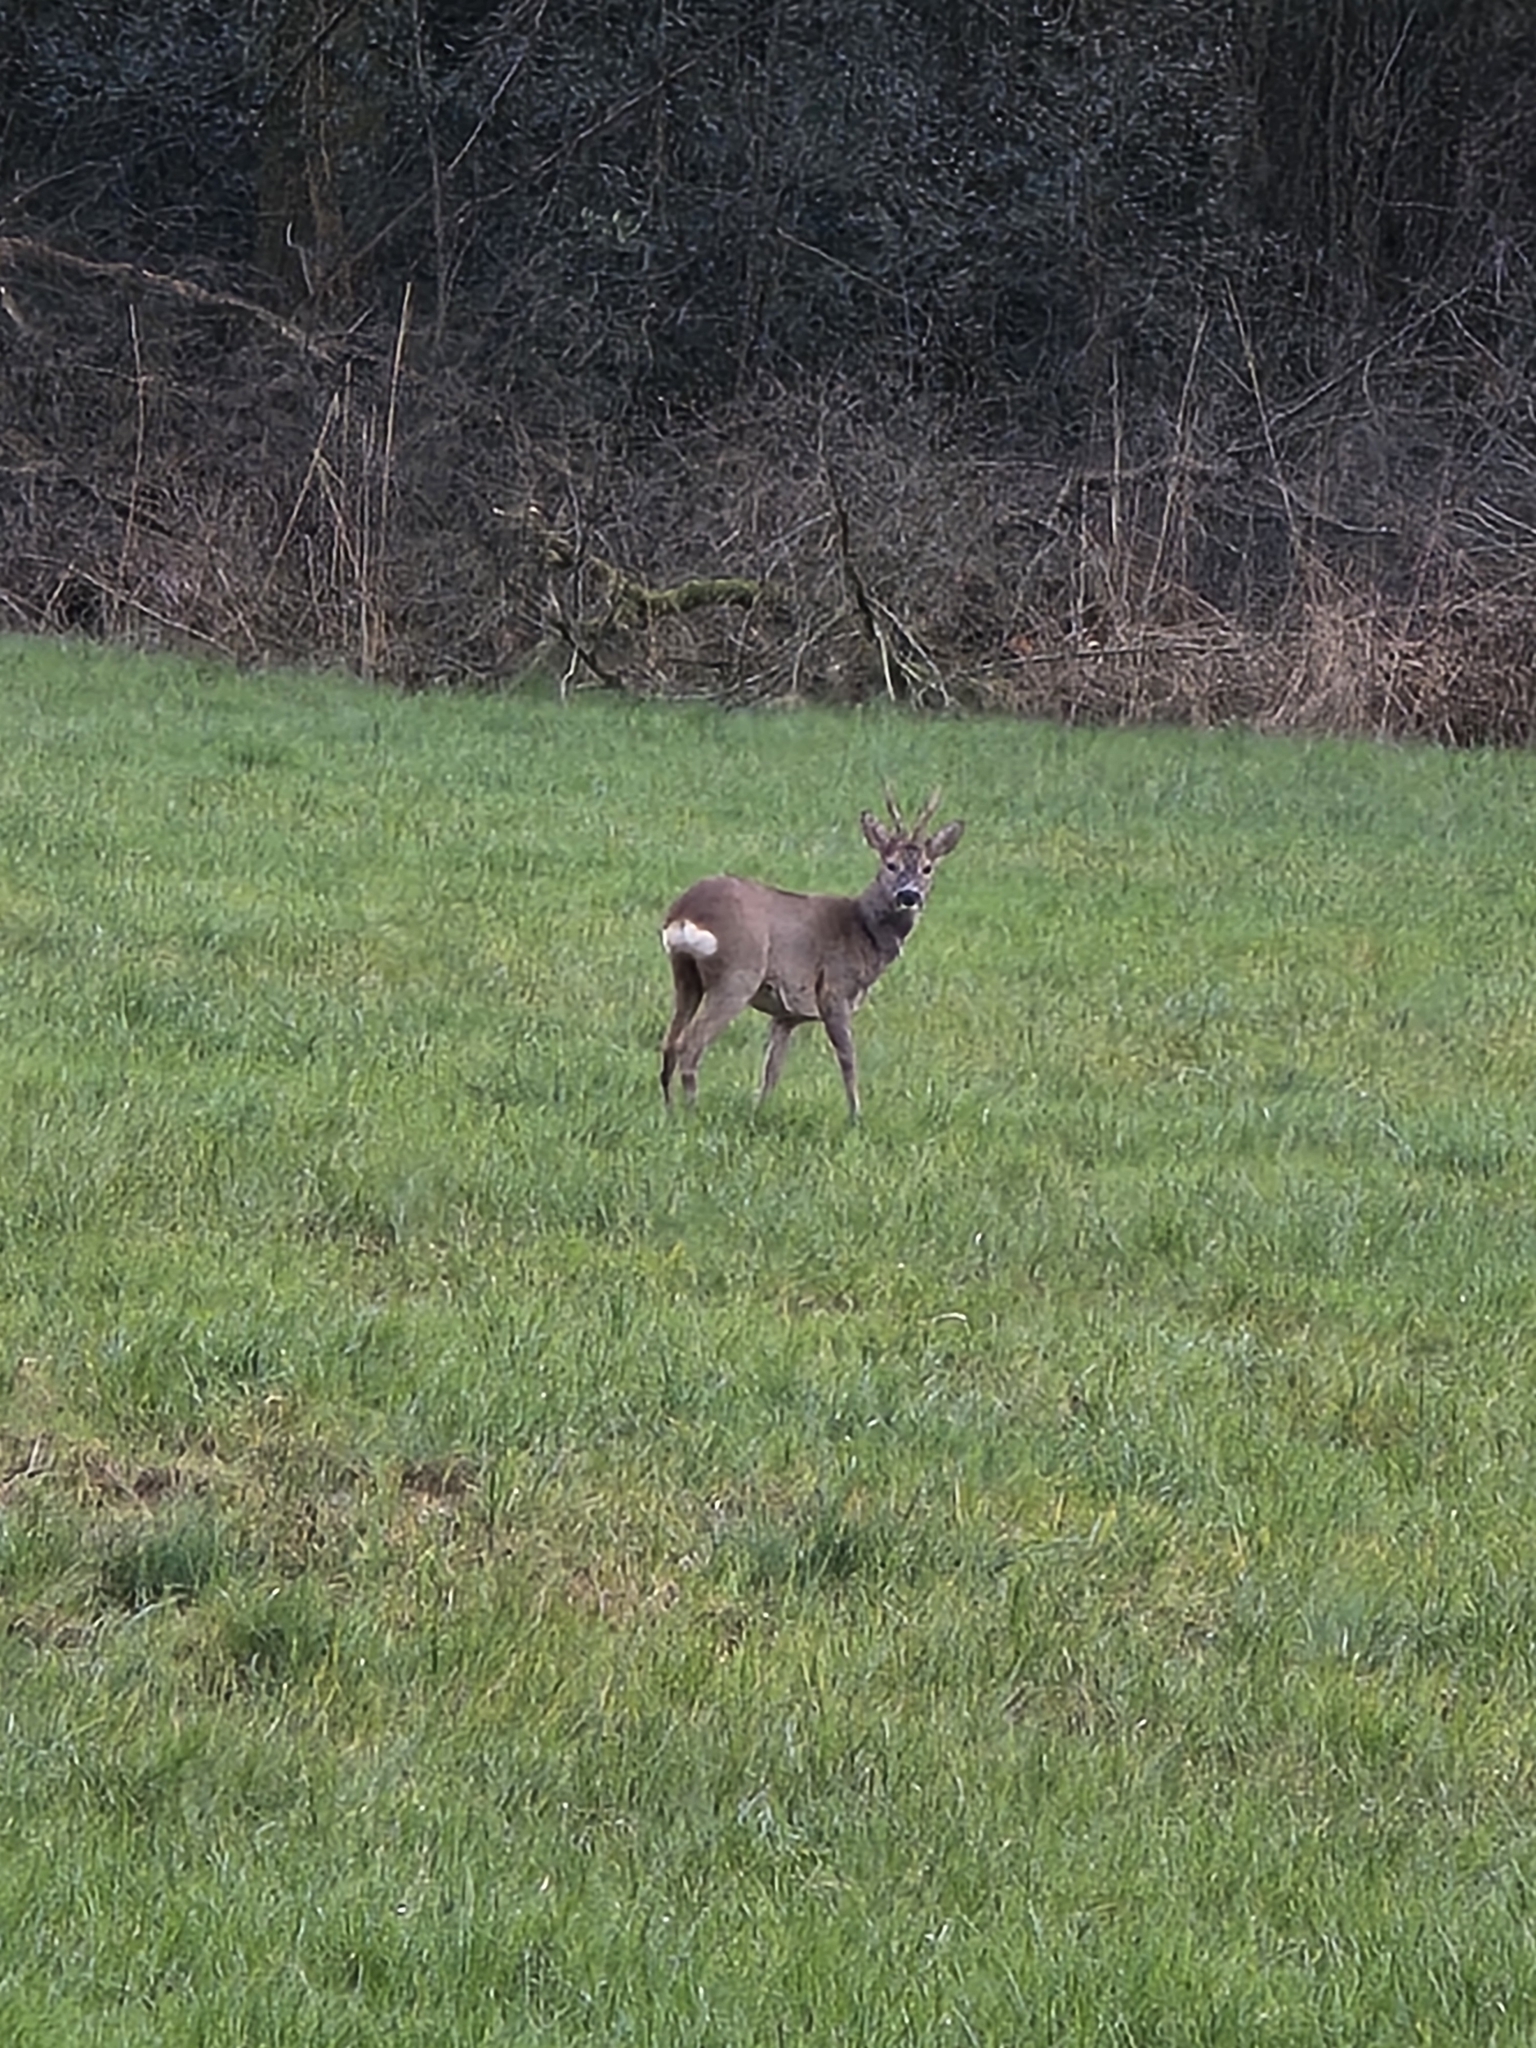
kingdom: Animalia
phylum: Chordata
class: Mammalia
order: Artiodactyla
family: Cervidae
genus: Capreolus
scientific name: Capreolus capreolus
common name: Western roe deer
